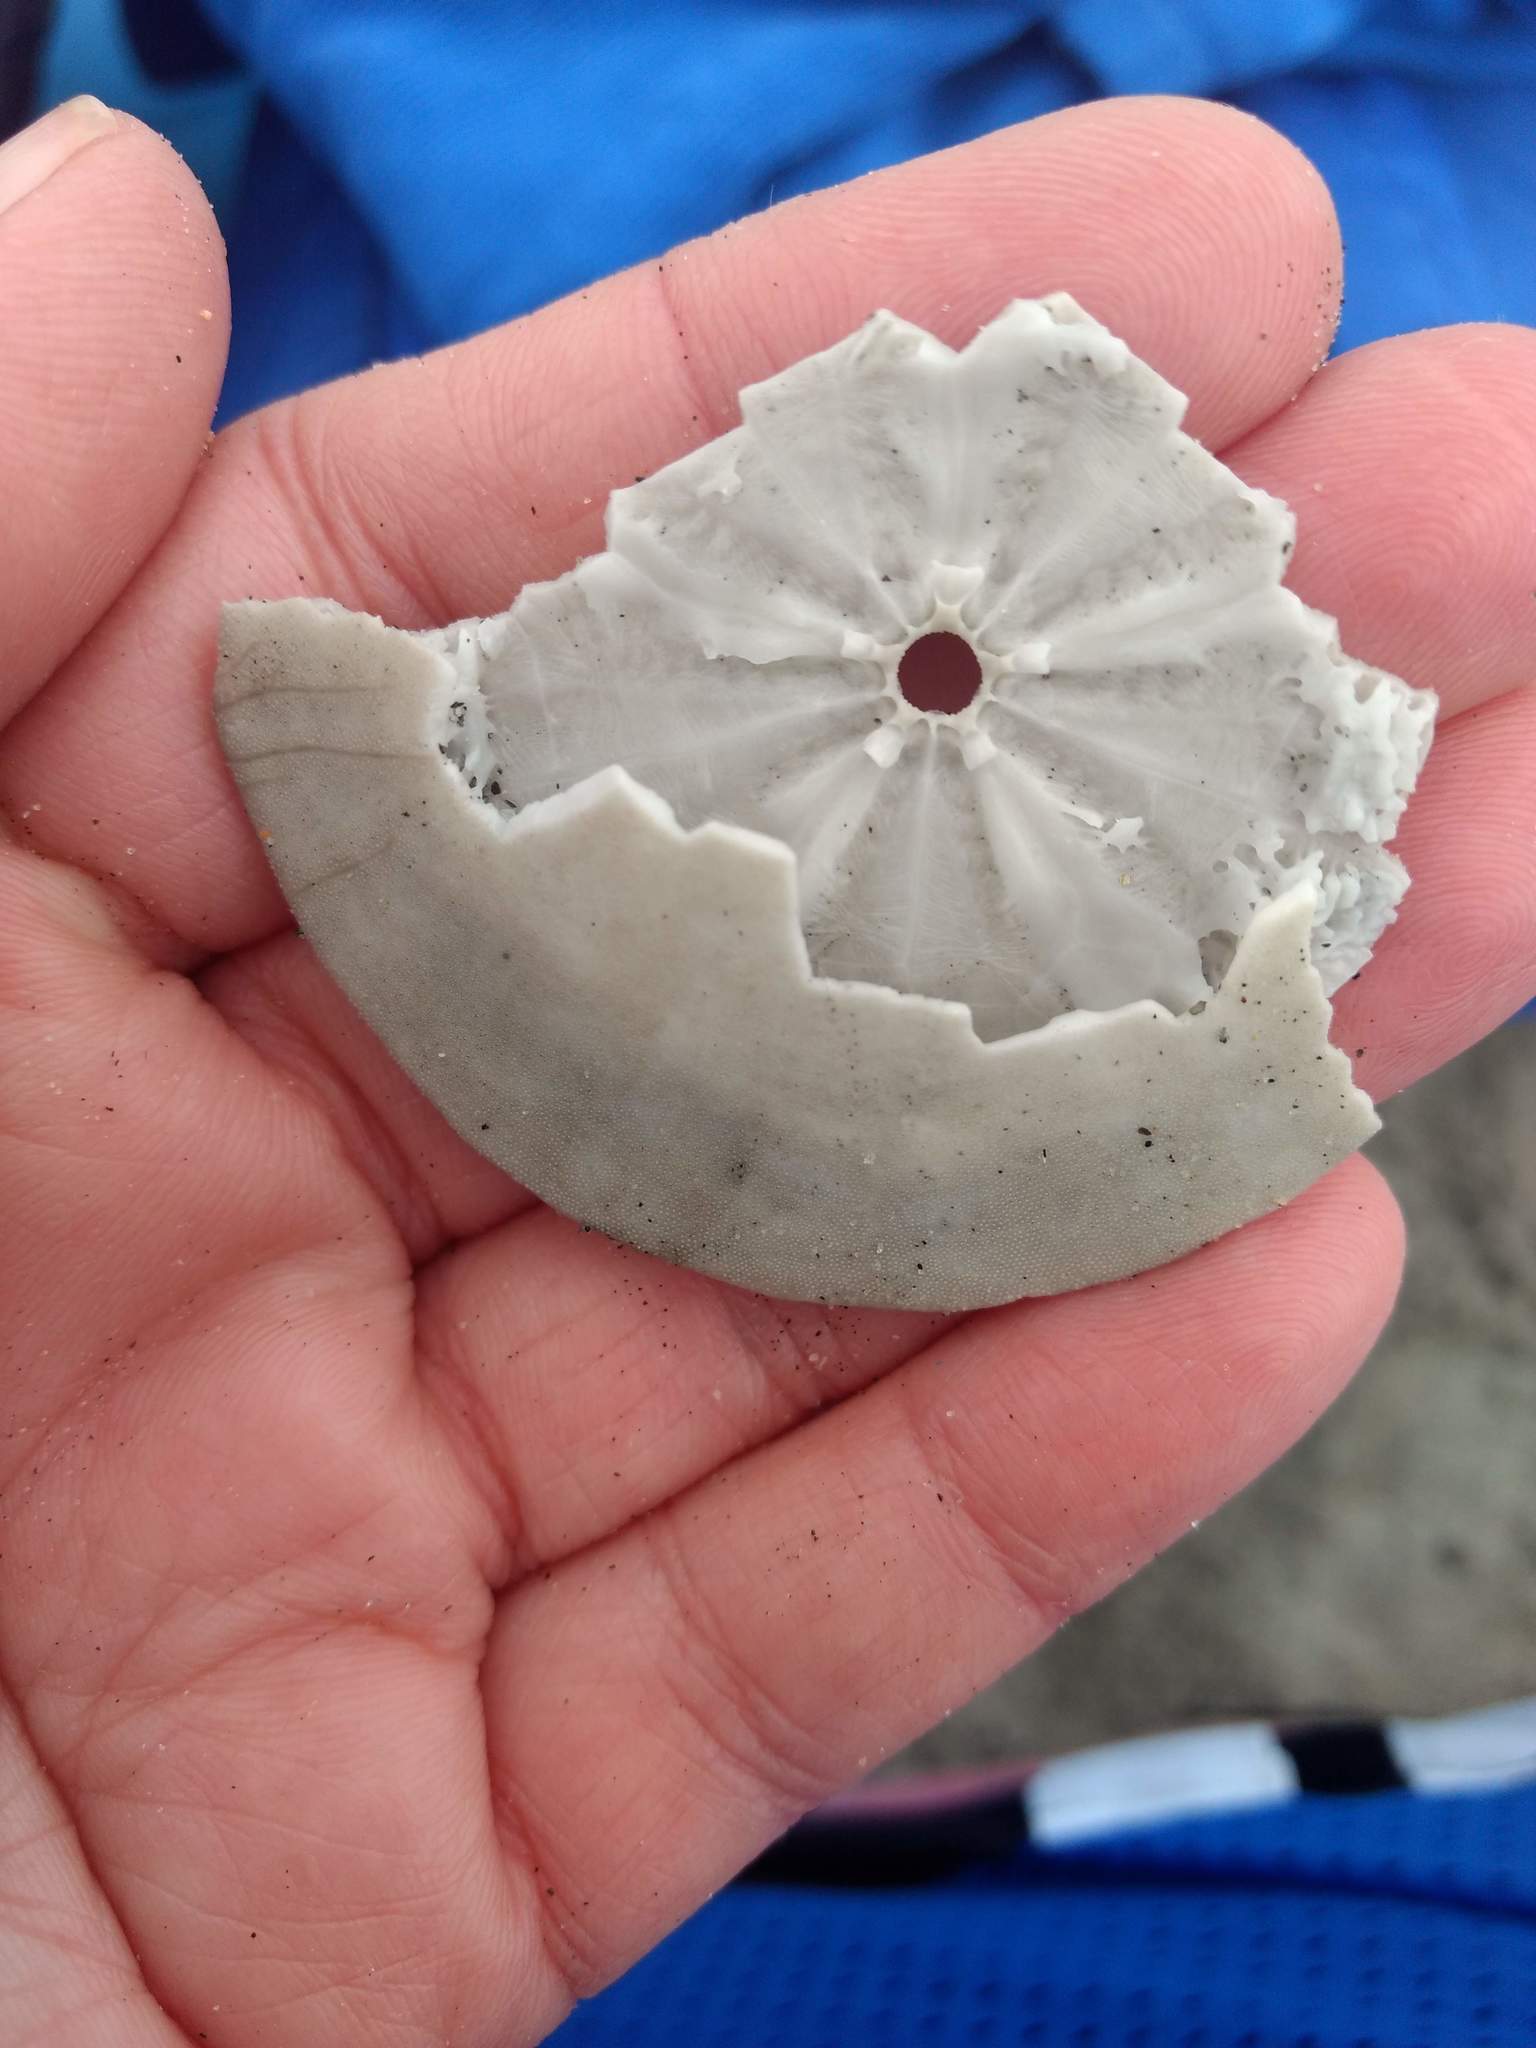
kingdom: Animalia
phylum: Echinodermata
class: Echinoidea
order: Echinolampadacea
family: Dendrasteridae
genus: Dendraster
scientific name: Dendraster excentricus
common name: Eccentric sand dollar sea urchin
